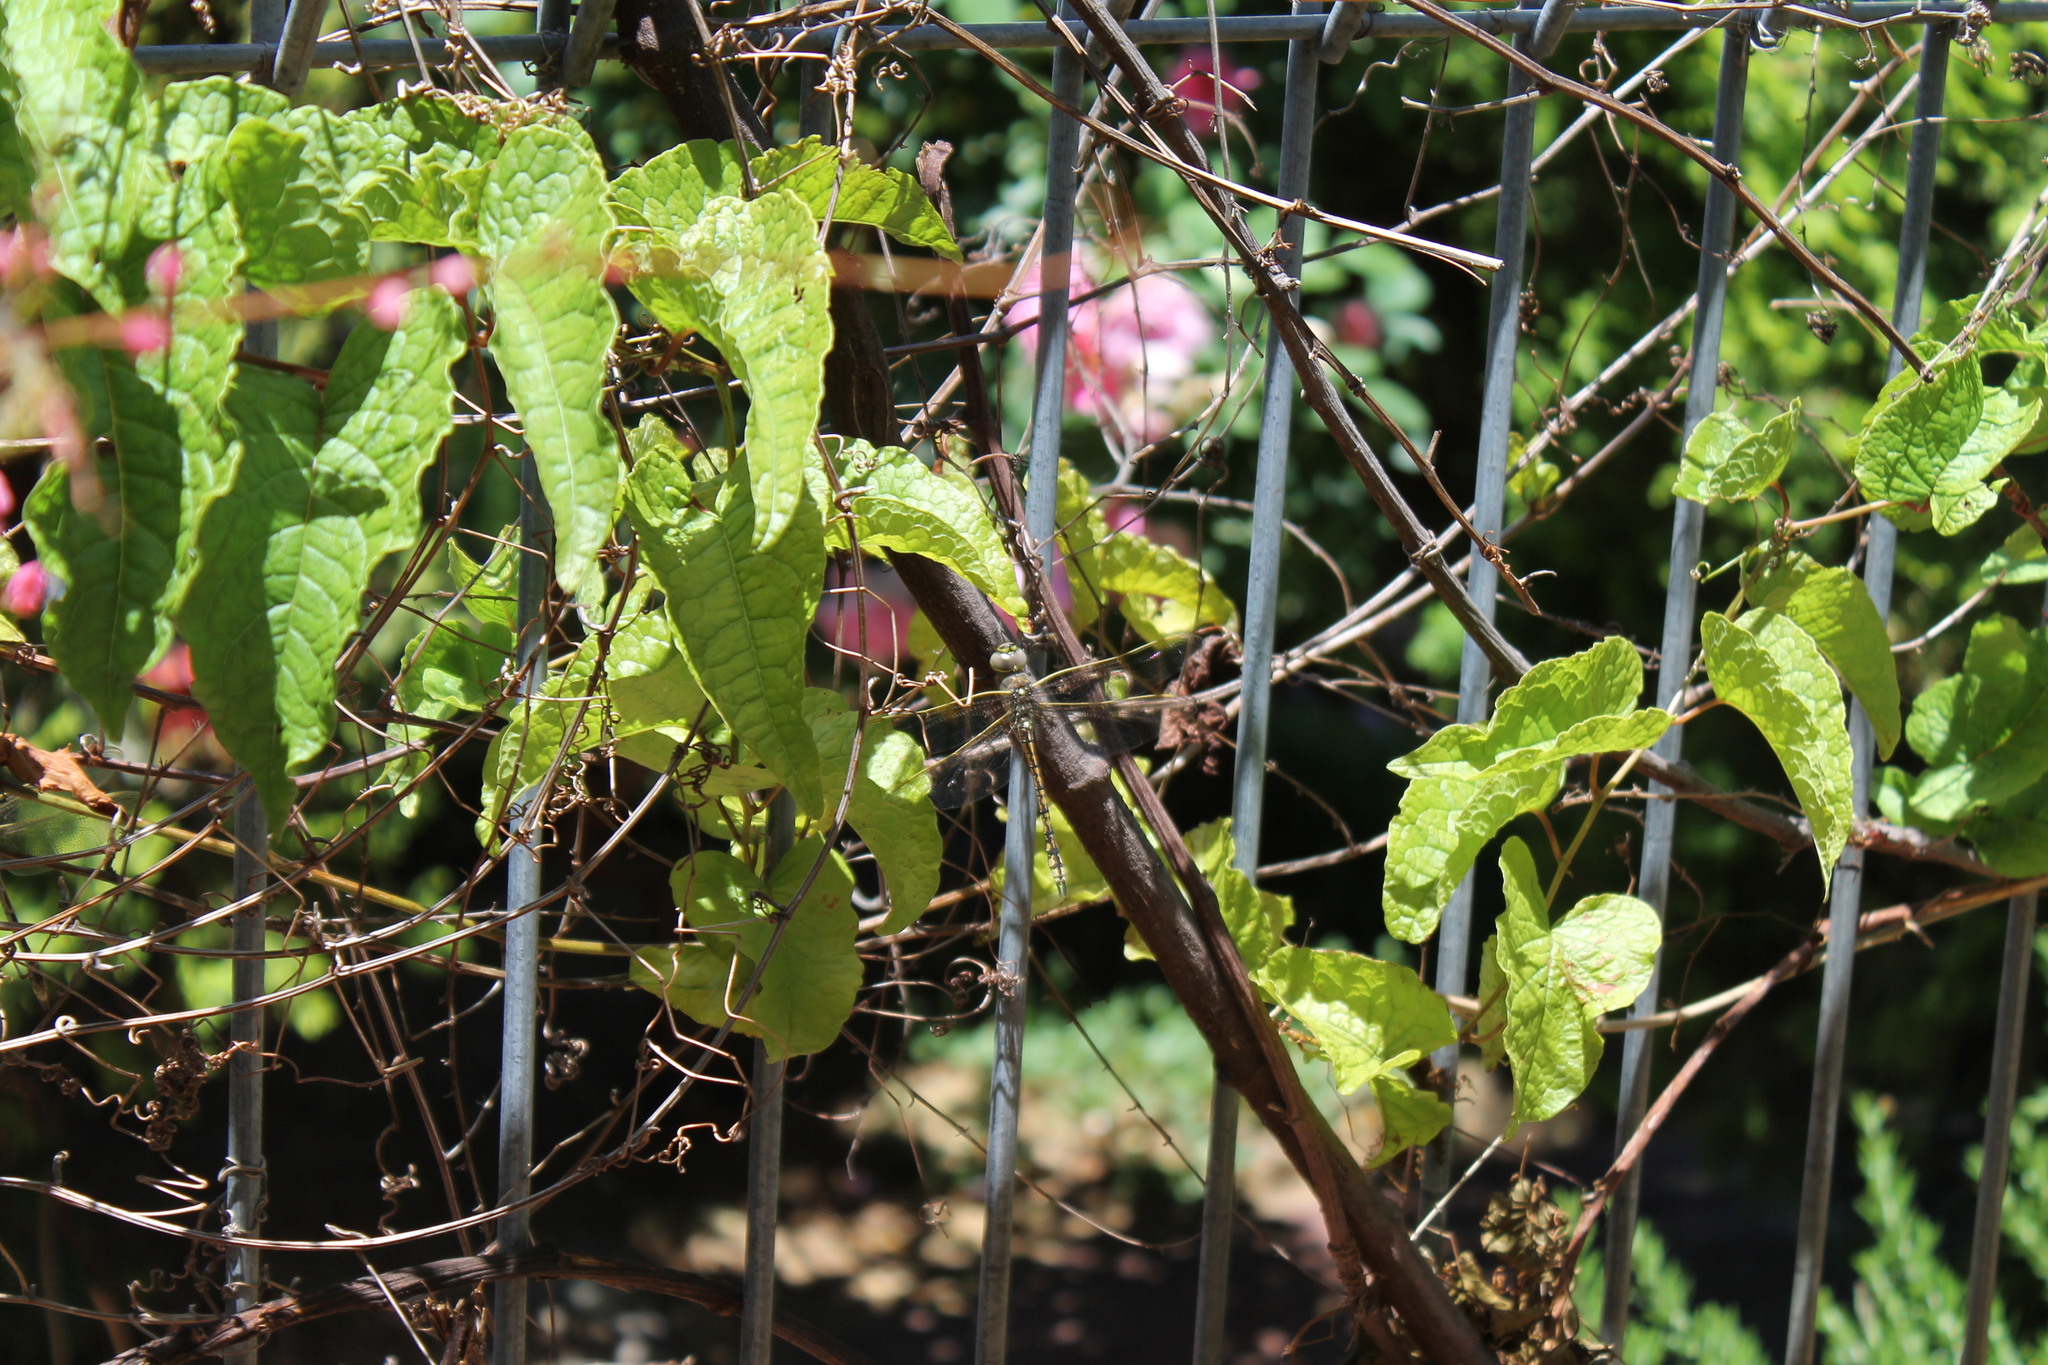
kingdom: Animalia
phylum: Arthropoda
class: Insecta
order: Odonata
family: Aeshnidae
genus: Anax
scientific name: Anax papuensis
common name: Australian emperor
